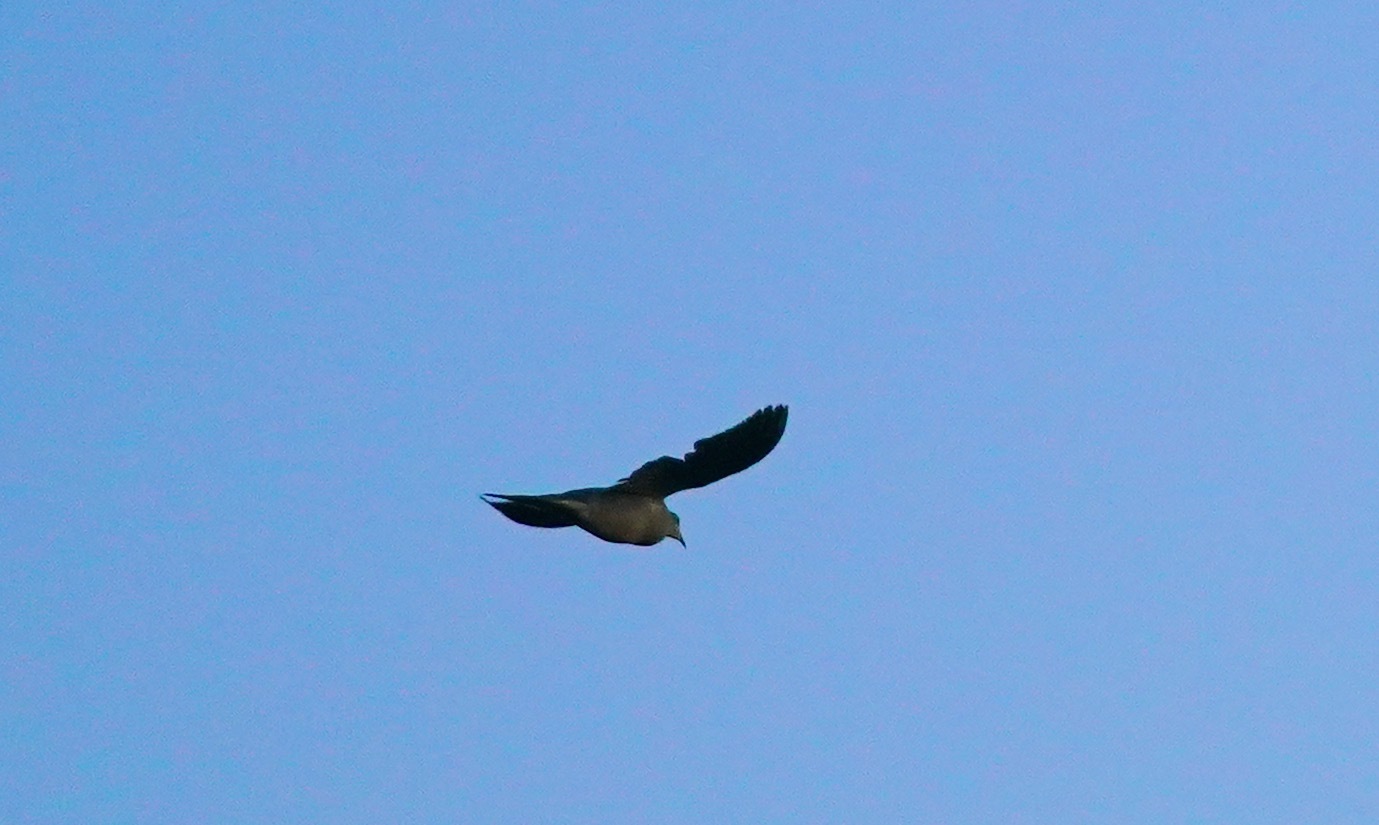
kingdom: Animalia
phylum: Chordata
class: Aves
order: Columbiformes
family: Columbidae
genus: Zenaida
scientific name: Zenaida macroura
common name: Mourning dove
